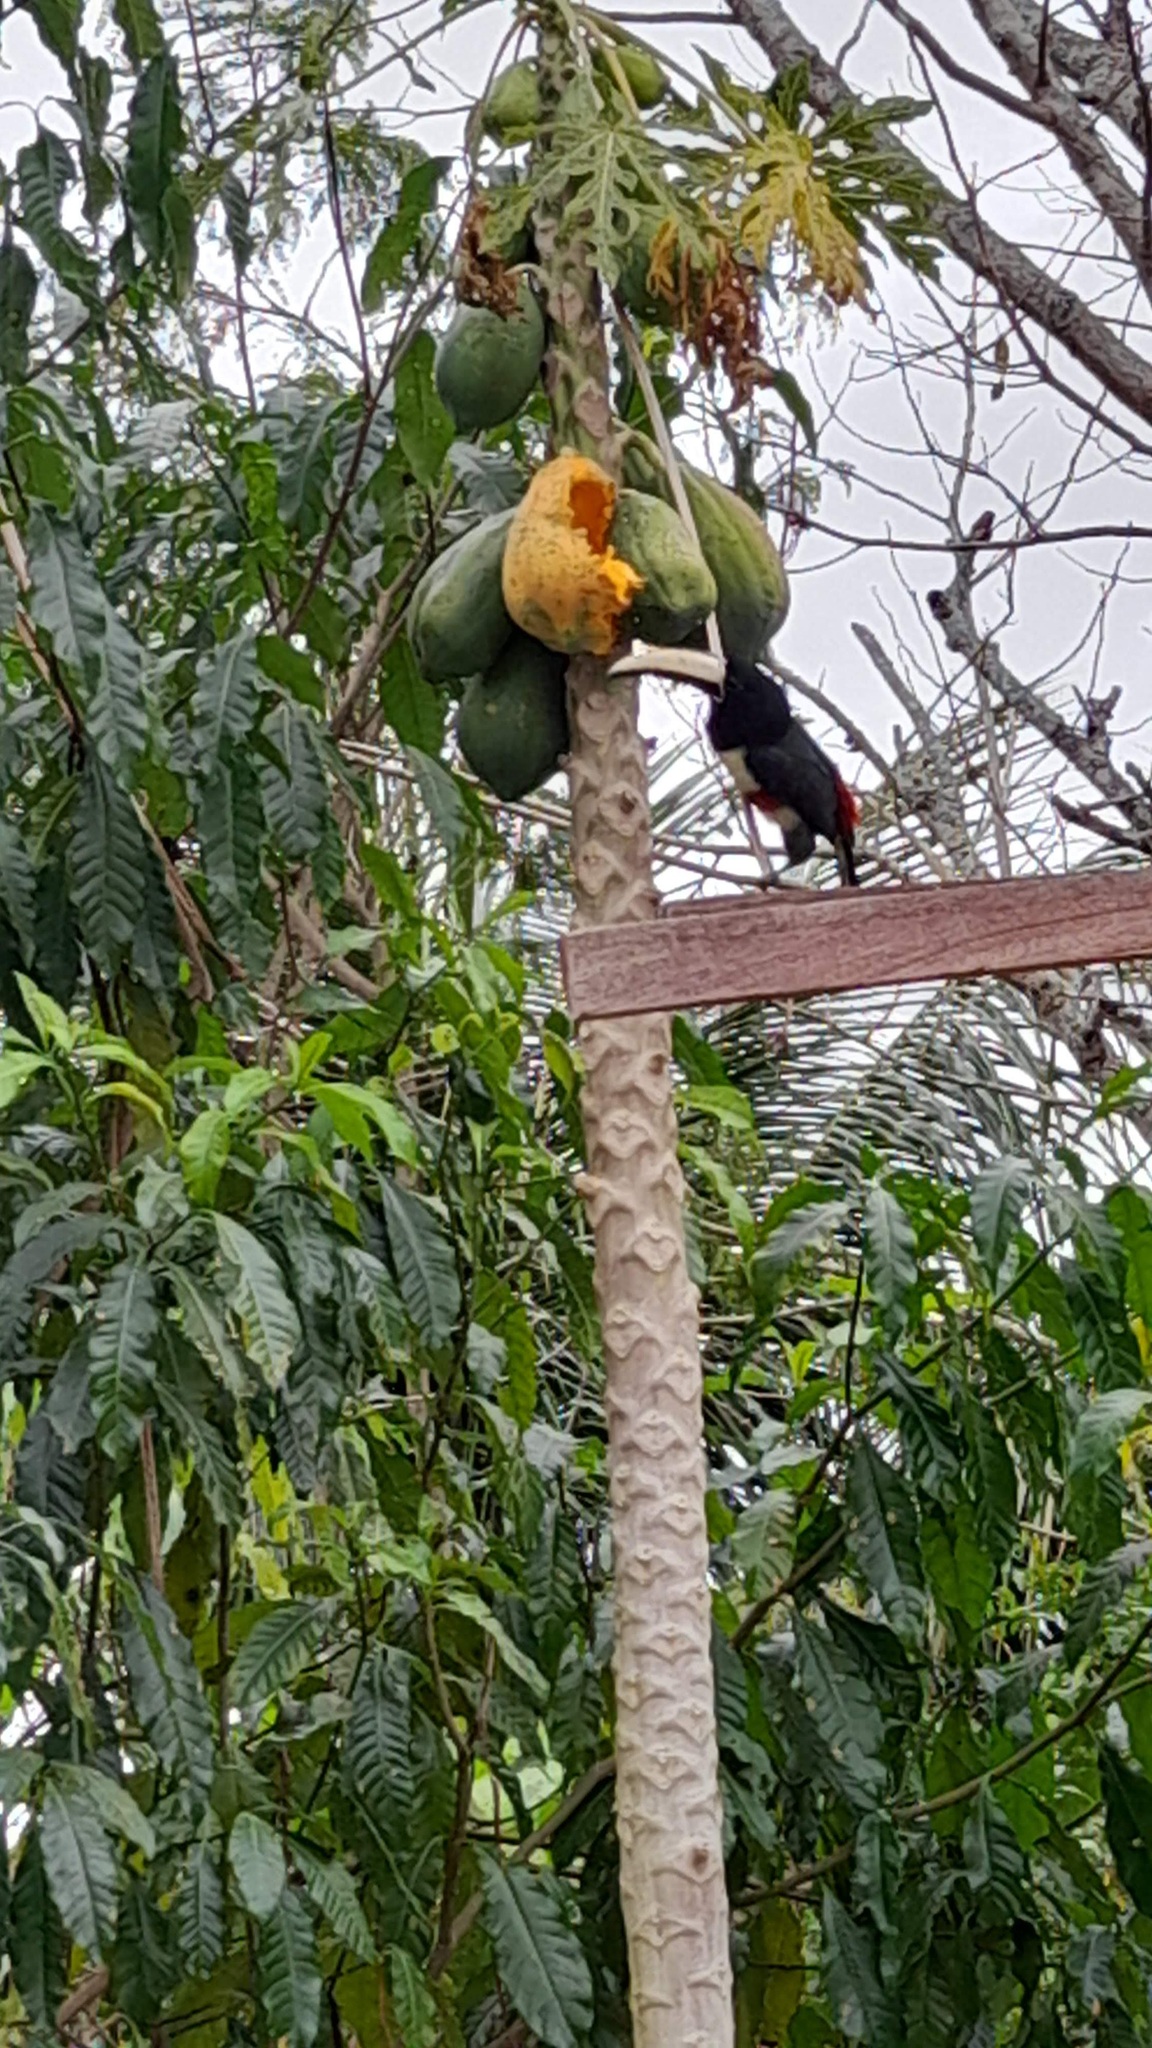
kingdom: Animalia
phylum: Chordata
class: Aves
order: Piciformes
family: Ramphastidae
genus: Pteroglossus
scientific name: Pteroglossus aracari
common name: Black-necked aracari
